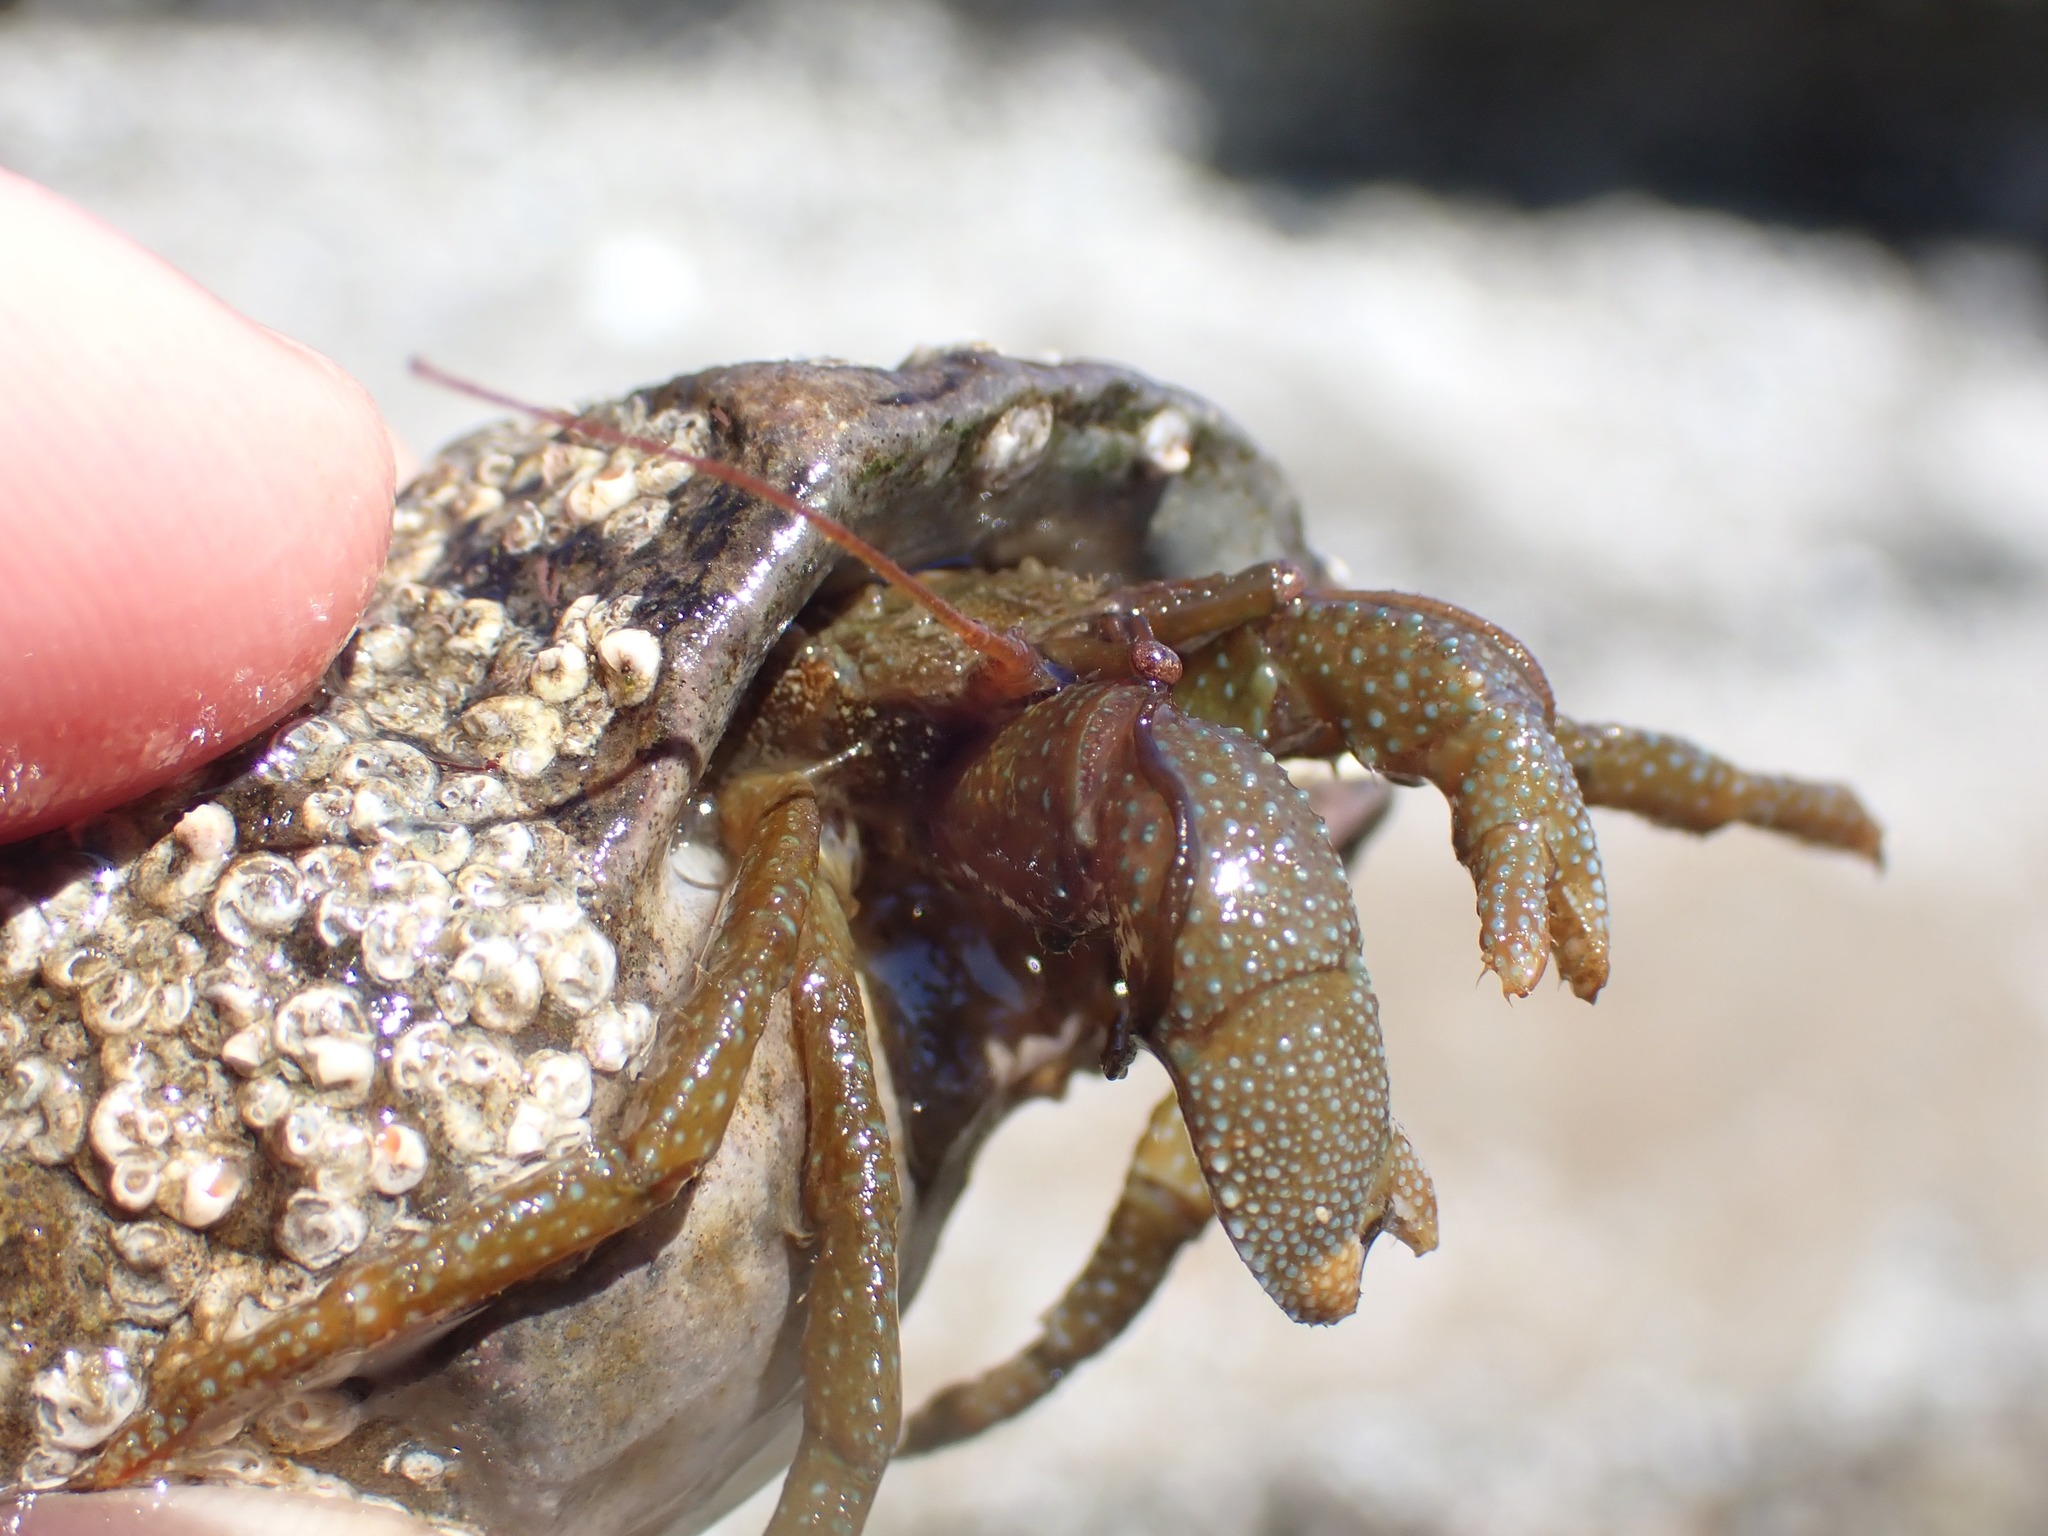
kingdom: Animalia
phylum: Arthropoda
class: Malacostraca
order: Decapoda
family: Paguridae
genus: Pagurus
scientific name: Pagurus granosimanus
